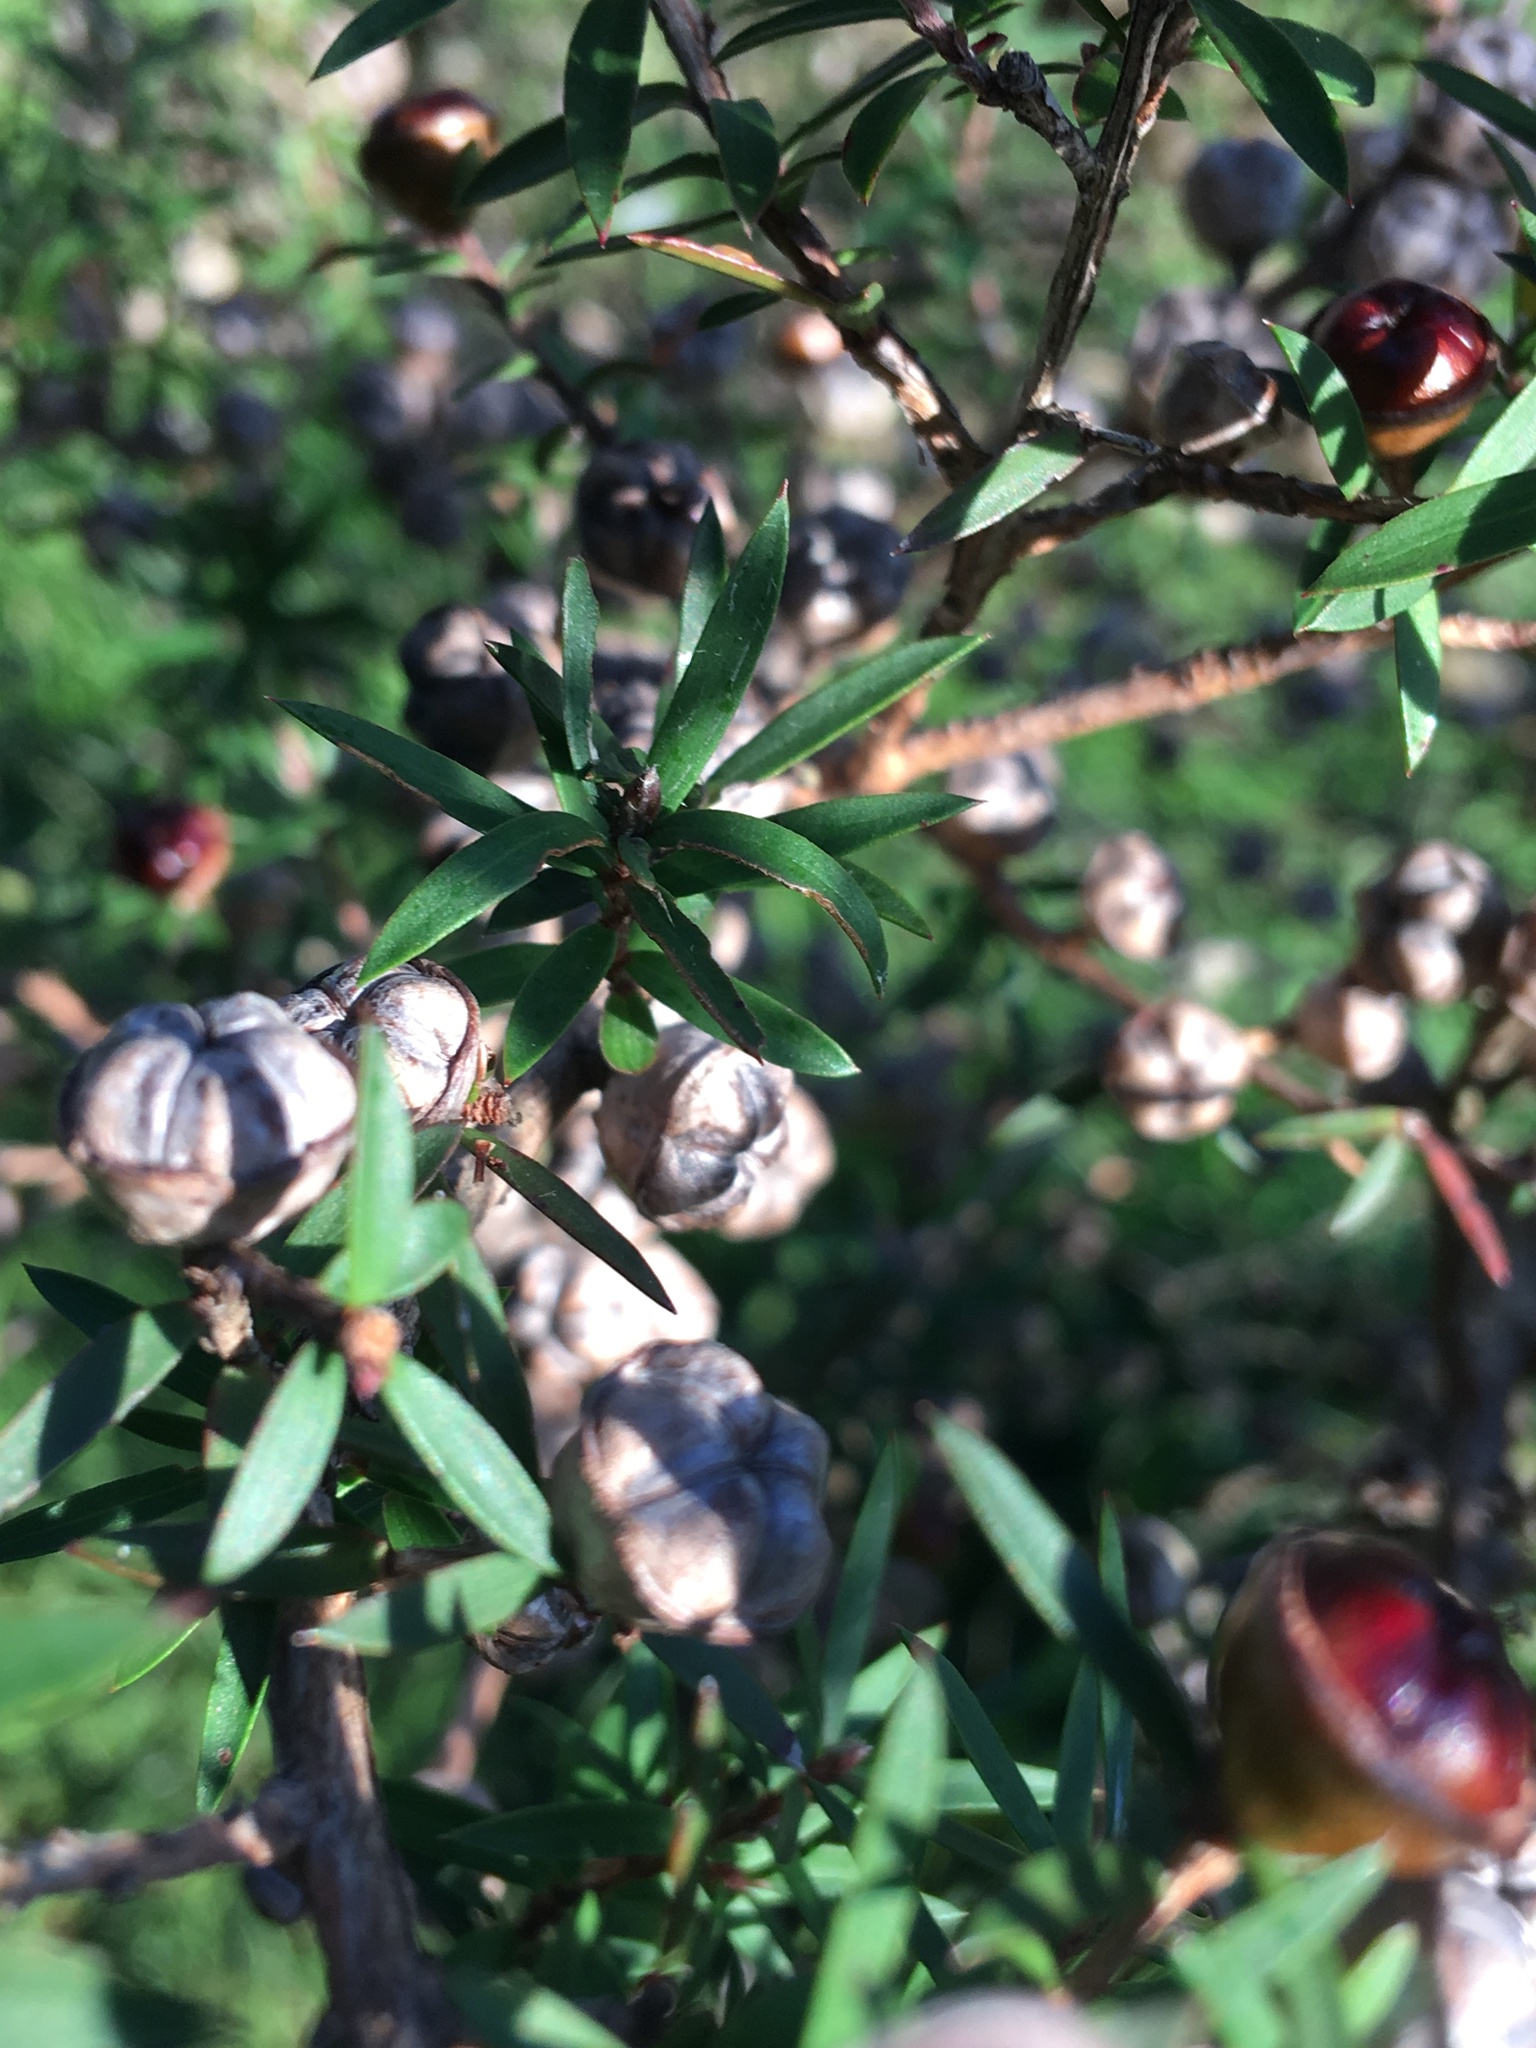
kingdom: Plantae
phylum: Tracheophyta
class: Magnoliopsida
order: Myrtales
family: Myrtaceae
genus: Leptospermum
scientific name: Leptospermum scoparium
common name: Broom tea-tree
